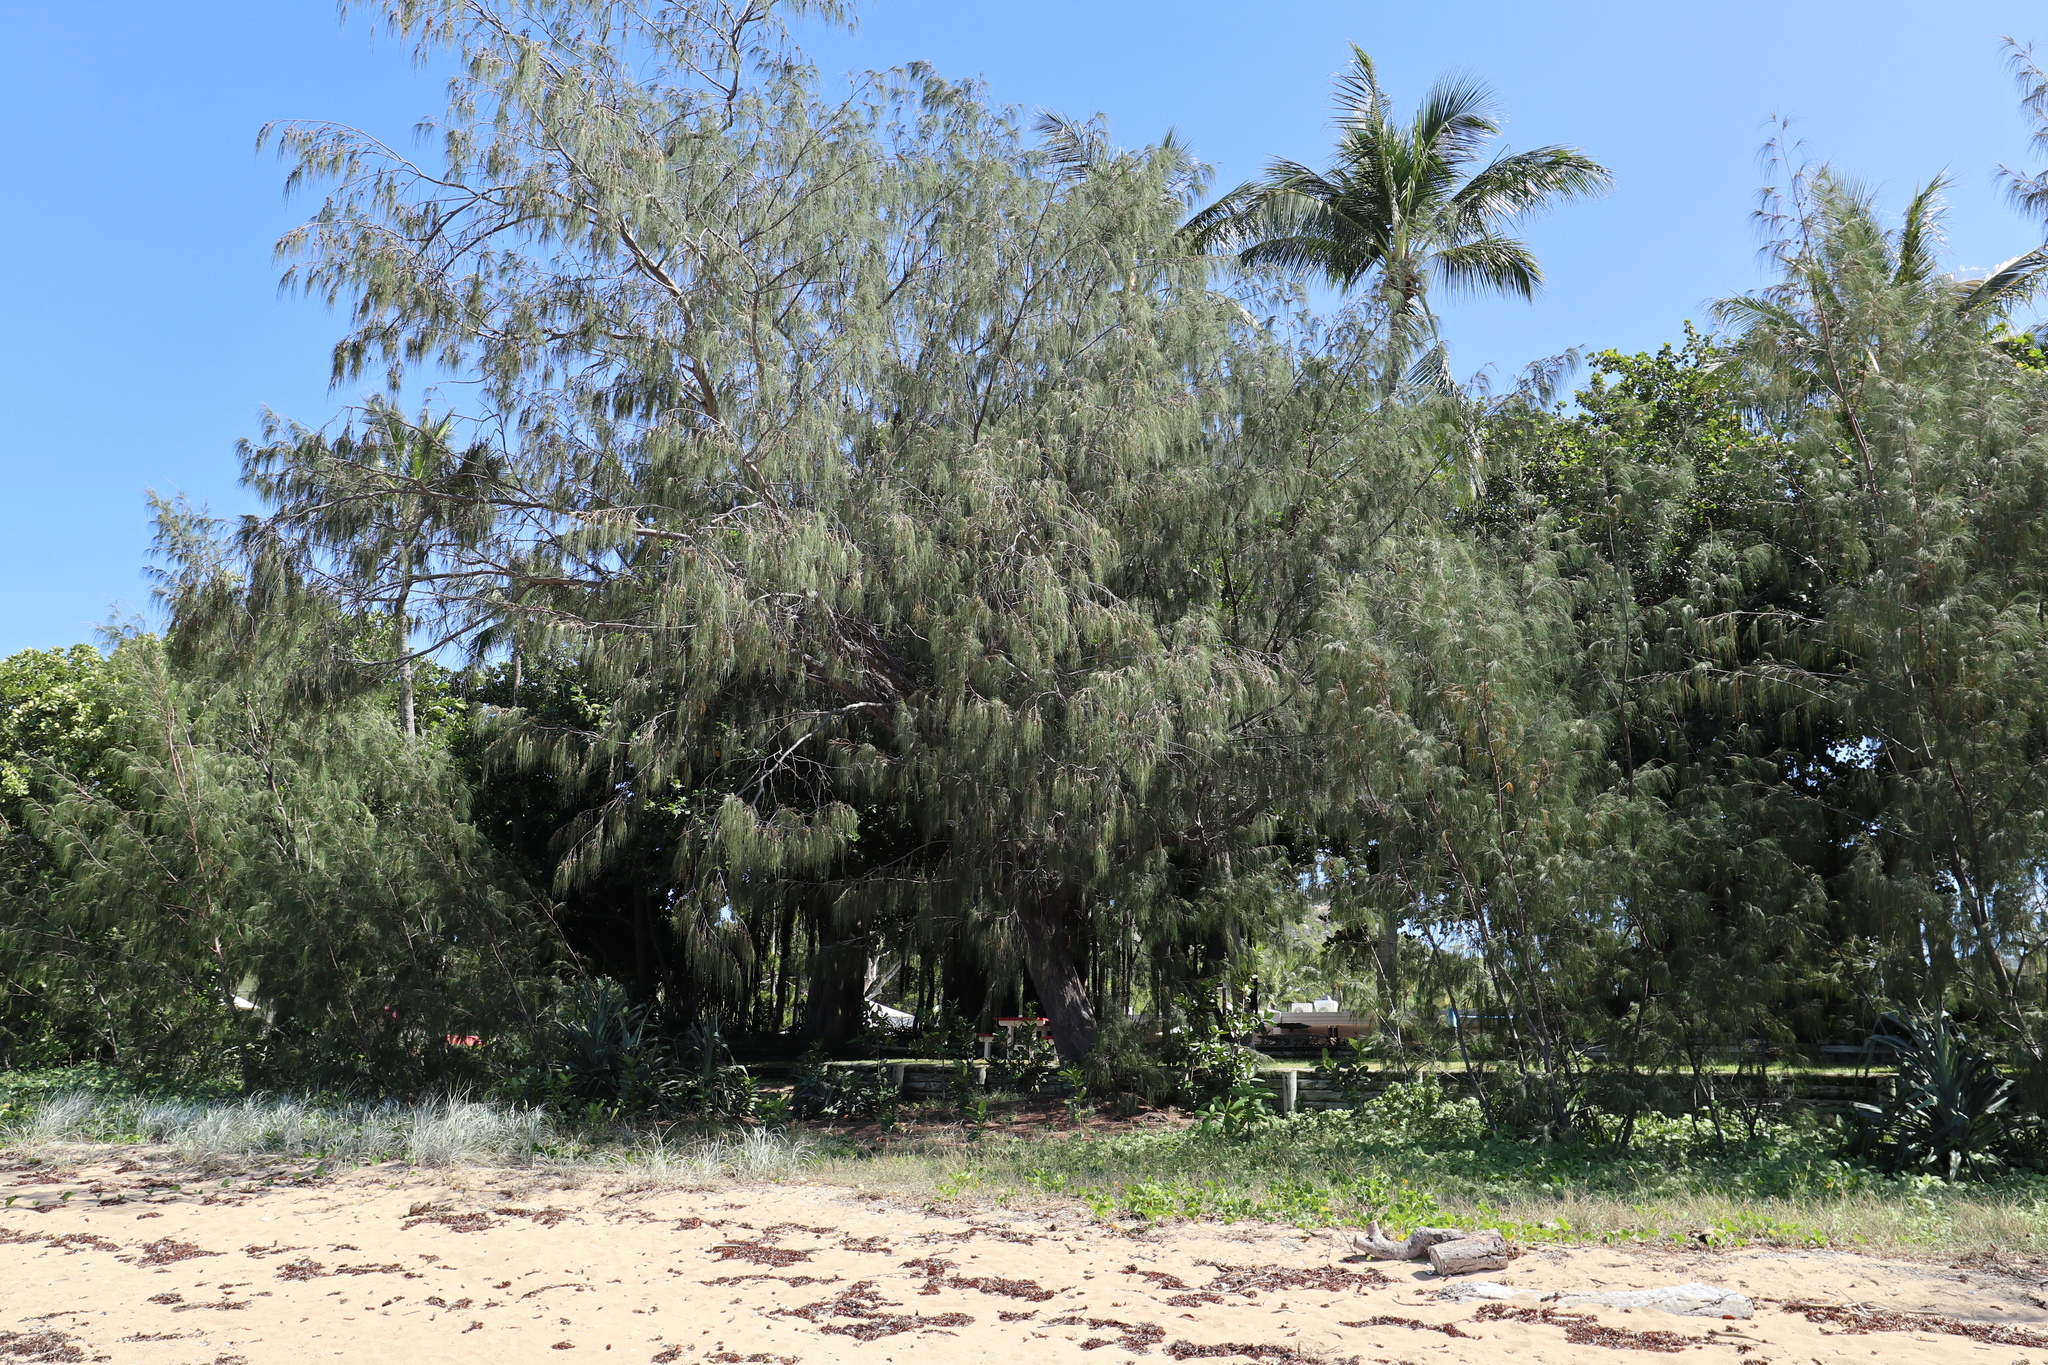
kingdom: Plantae
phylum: Tracheophyta
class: Magnoliopsida
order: Fagales
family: Casuarinaceae
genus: Casuarina
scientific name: Casuarina equisetifolia
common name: Beach sheoak
